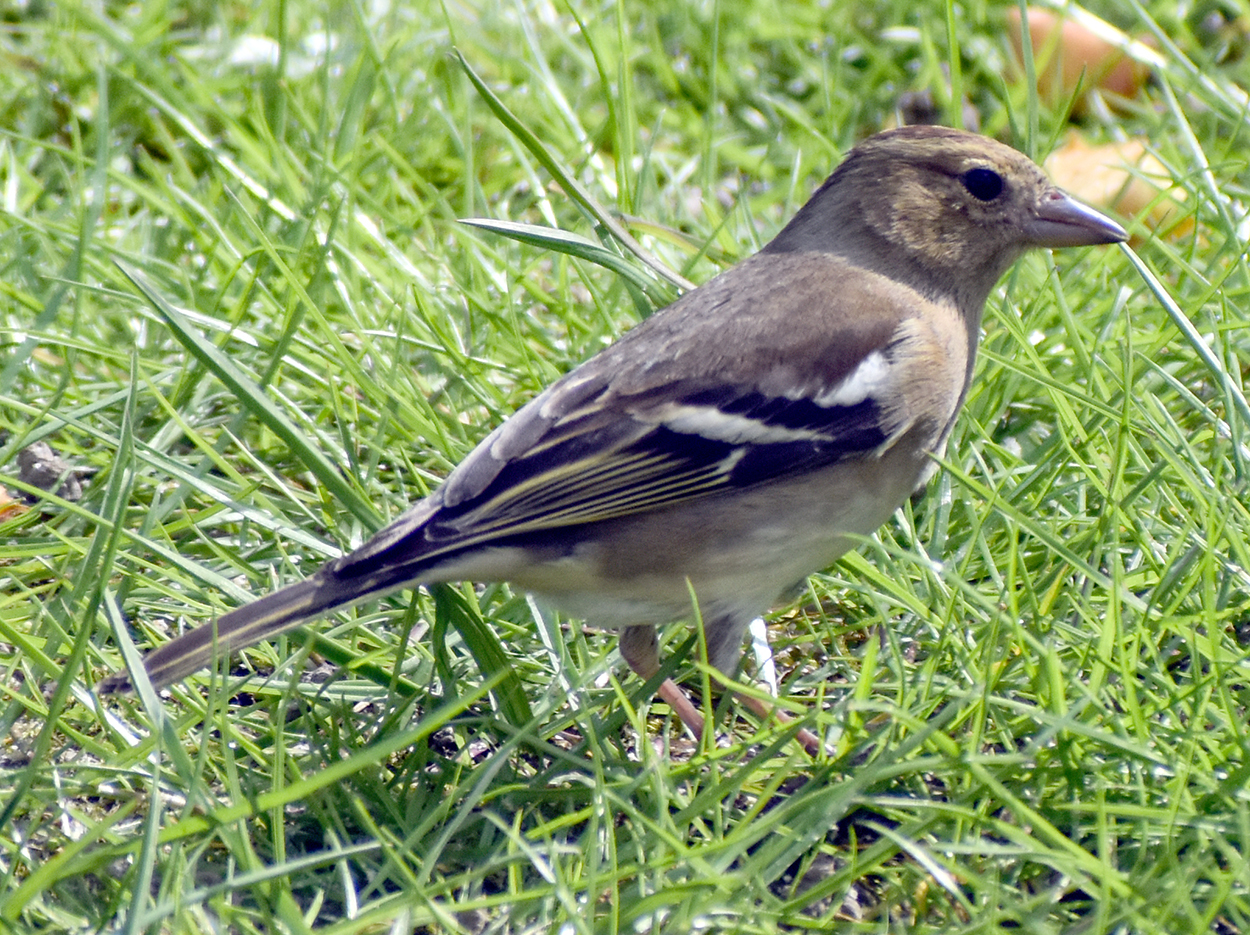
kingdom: Animalia
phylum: Chordata
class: Aves
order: Passeriformes
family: Fringillidae
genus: Fringilla
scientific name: Fringilla coelebs
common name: Common chaffinch
